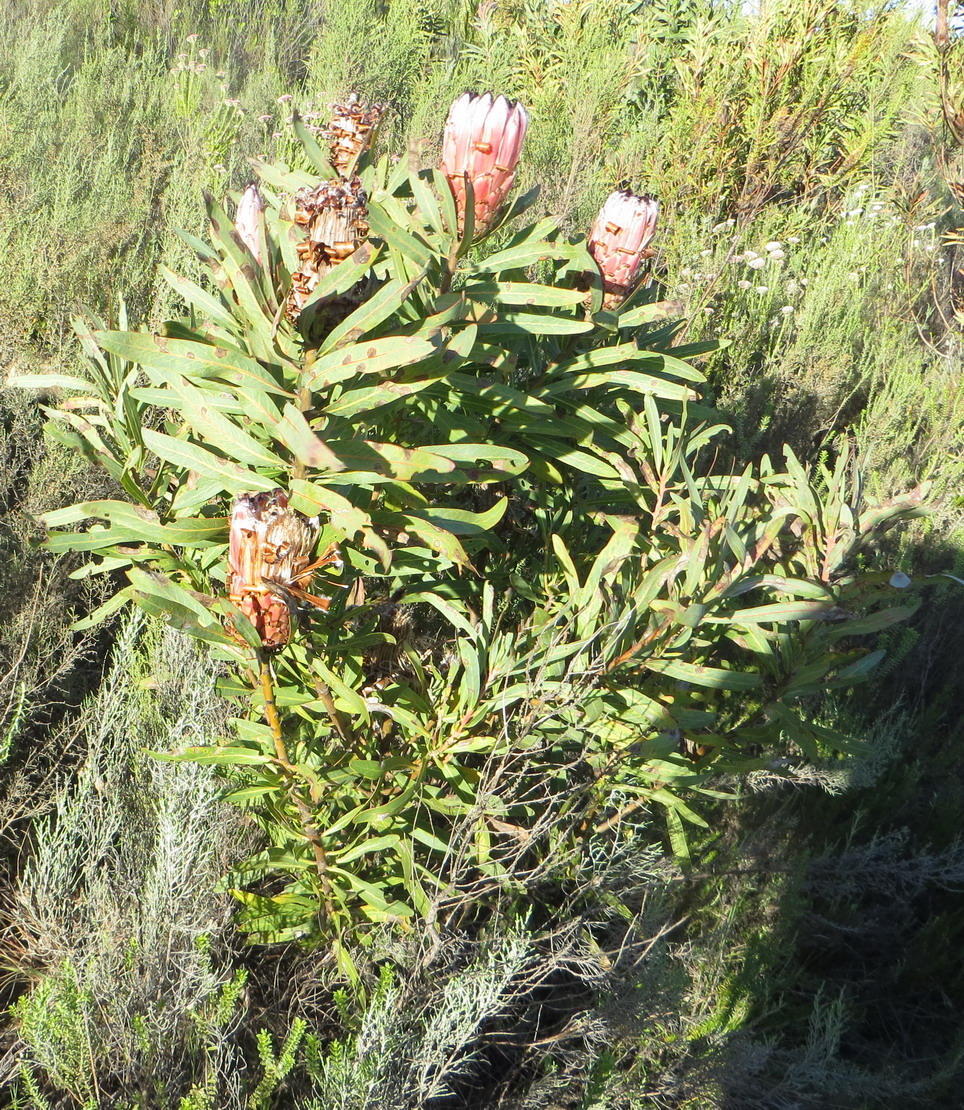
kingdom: Plantae
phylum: Tracheophyta
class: Magnoliopsida
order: Proteales
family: Proteaceae
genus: Protea
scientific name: Protea neriifolia
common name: Blue sugarbush
